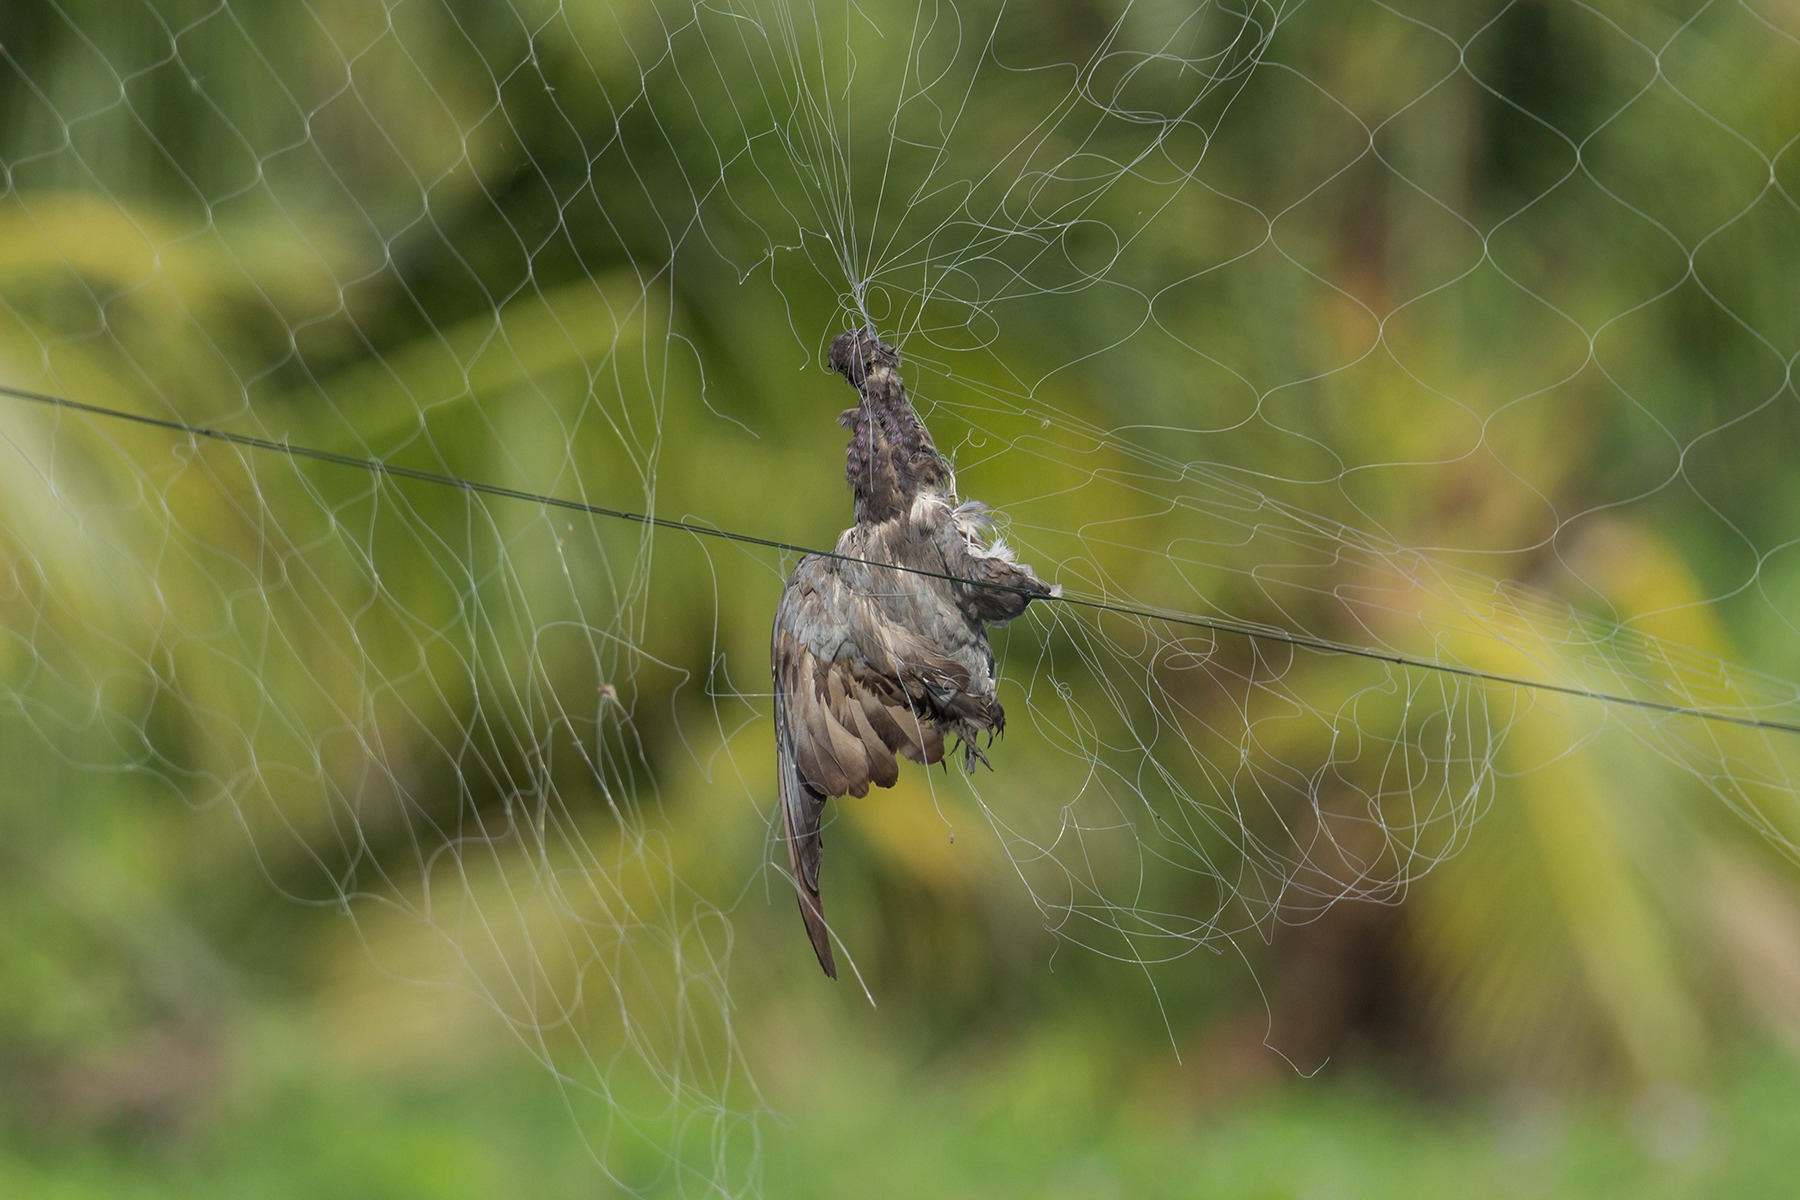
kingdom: Animalia
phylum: Chordata
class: Aves
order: Columbiformes
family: Columbidae
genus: Columba
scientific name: Columba livia
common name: Rock pigeon
